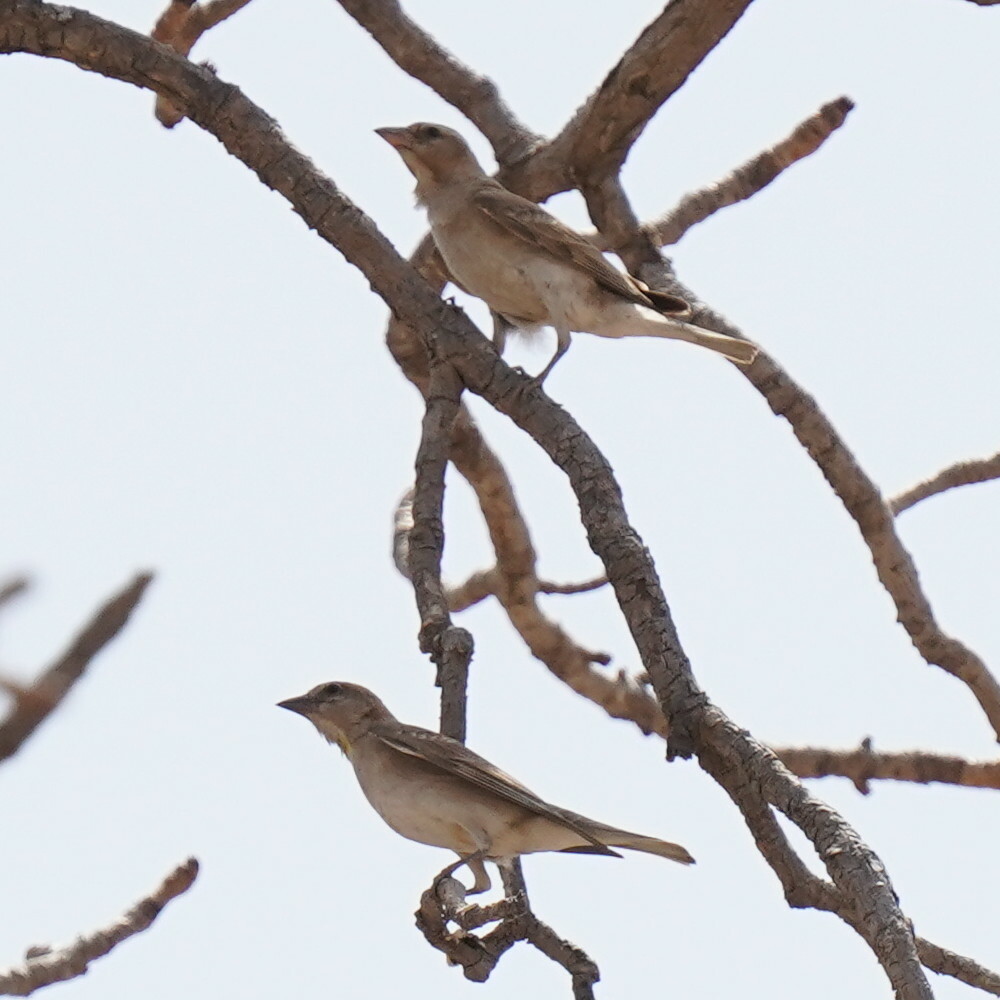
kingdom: Animalia
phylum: Chordata
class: Aves
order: Passeriformes
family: Passeridae
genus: Gymnoris
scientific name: Gymnoris dentata
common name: Bush petronia
